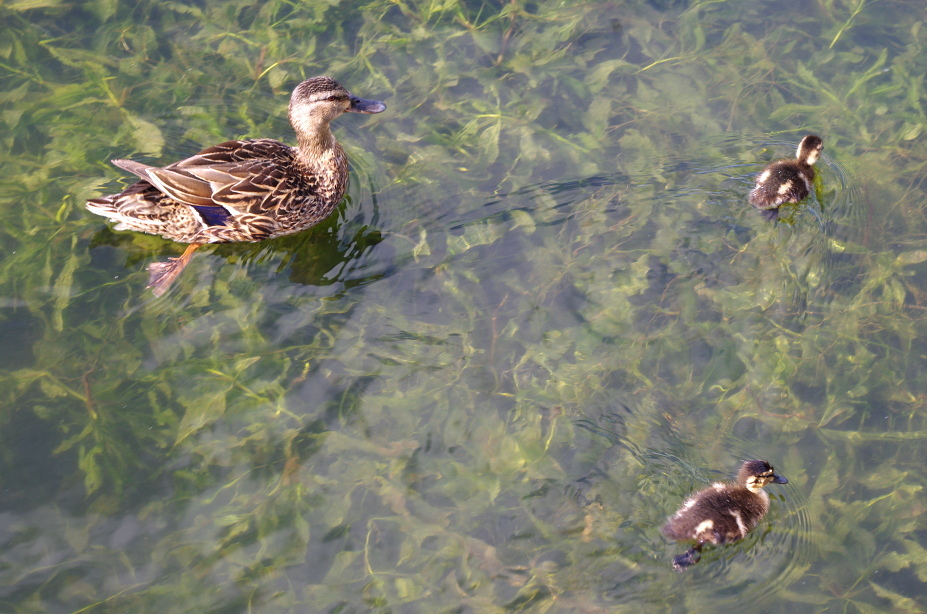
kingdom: Animalia
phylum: Chordata
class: Aves
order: Anseriformes
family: Anatidae
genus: Anas
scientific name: Anas platyrhynchos
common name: Mallard
